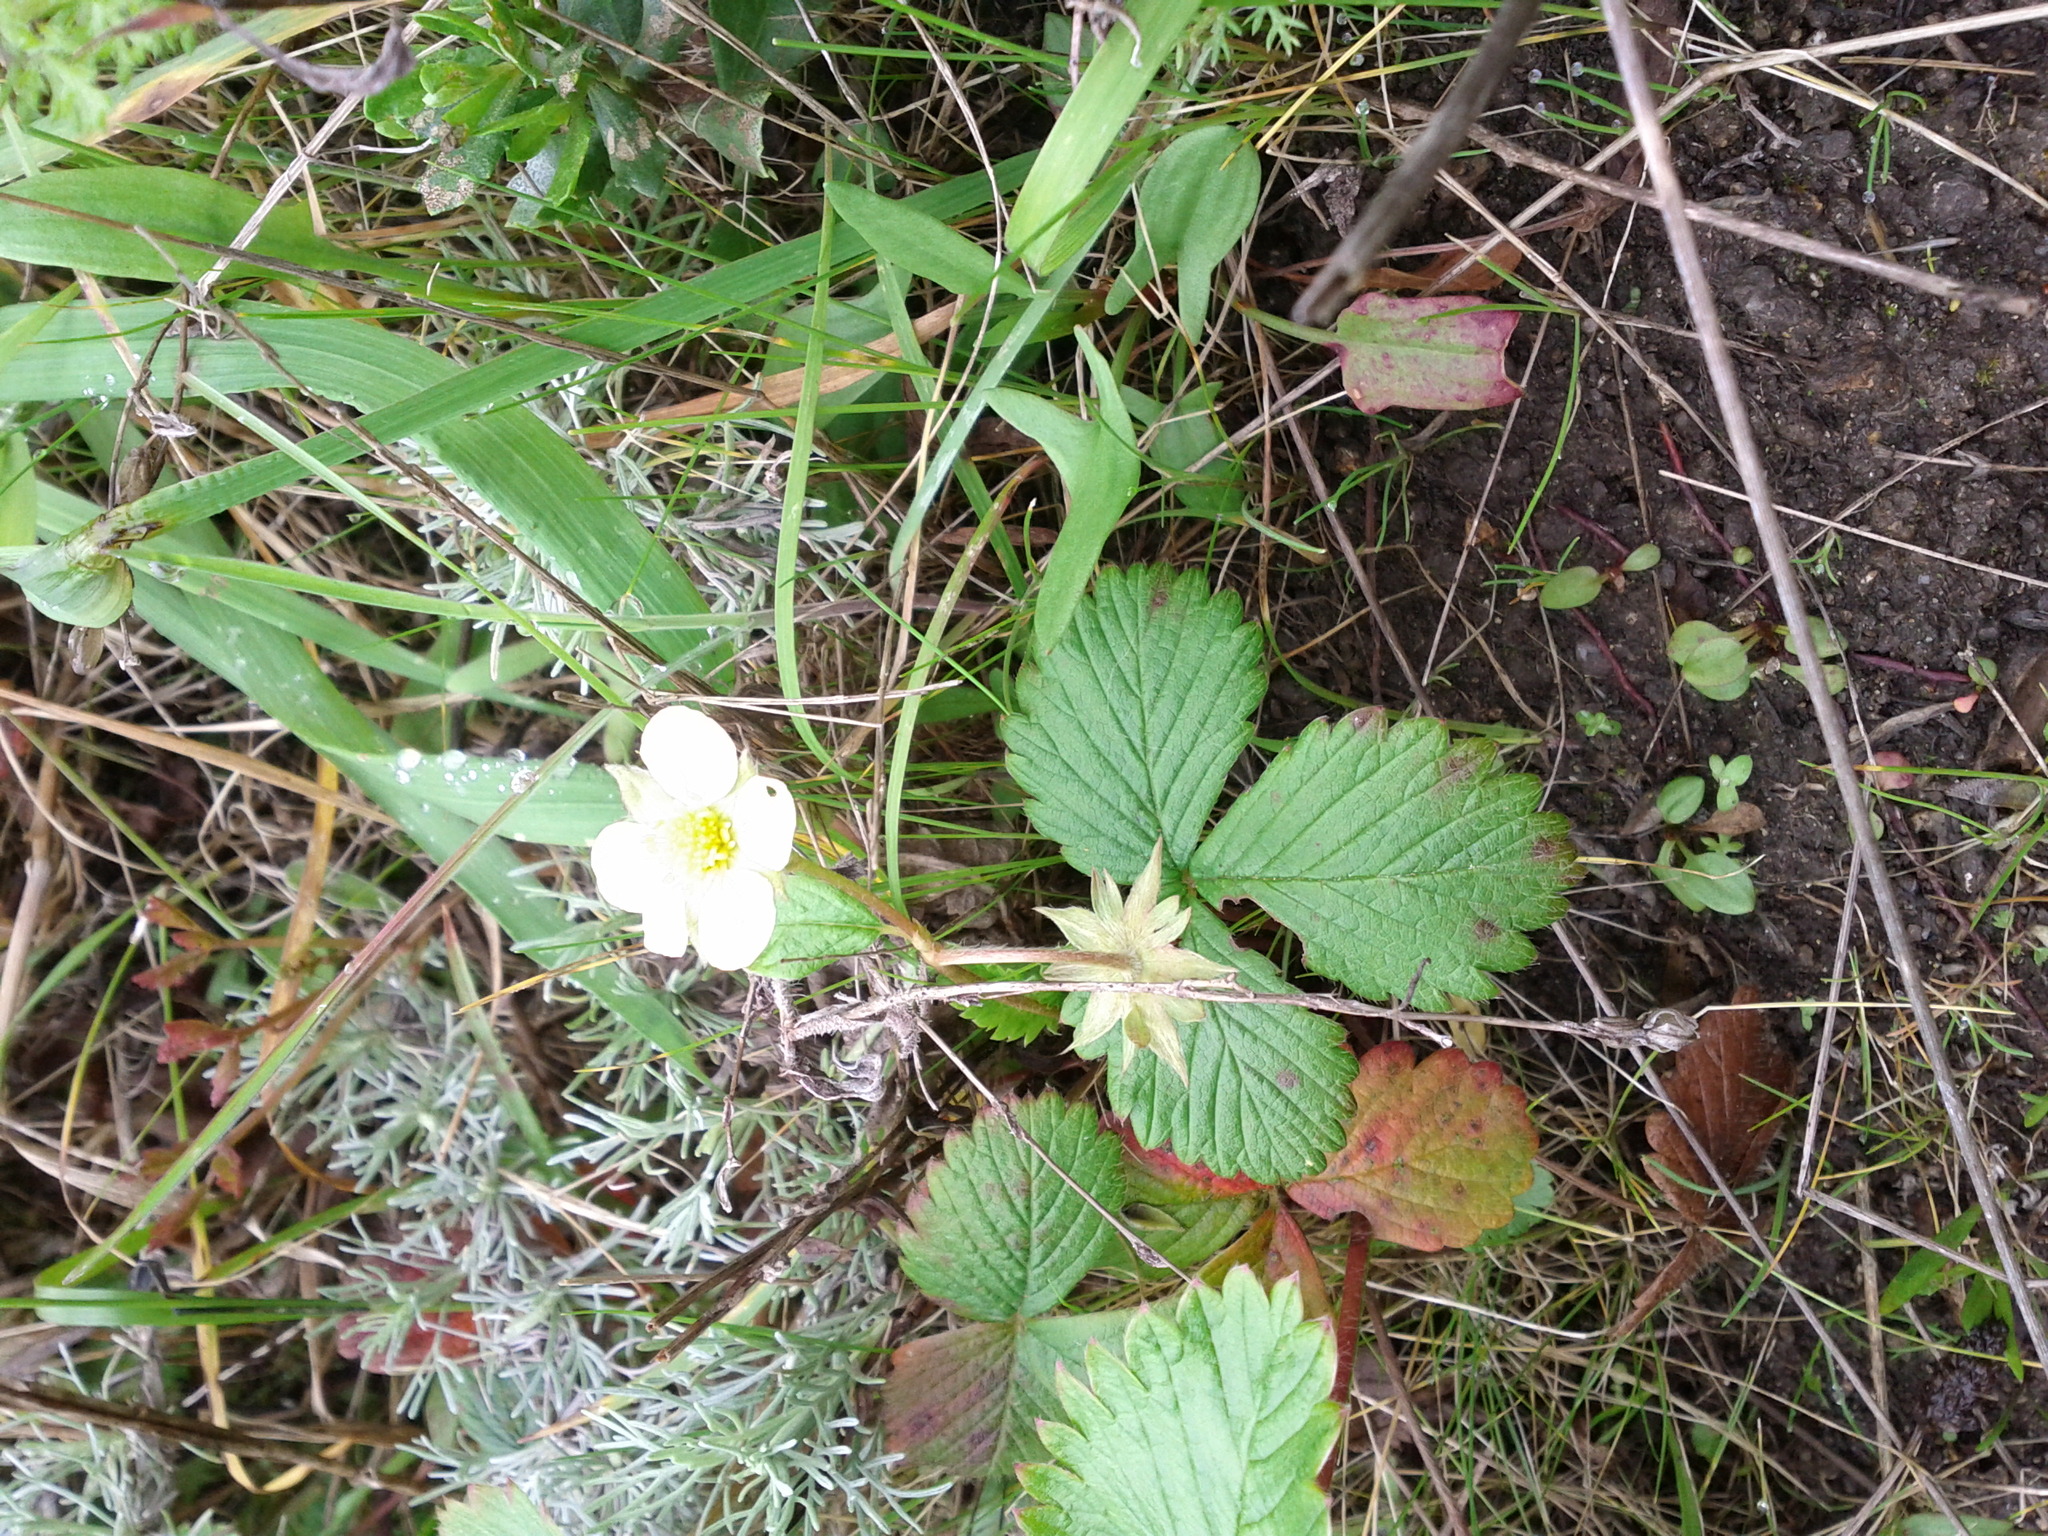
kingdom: Plantae
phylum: Tracheophyta
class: Magnoliopsida
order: Rosales
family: Rosaceae
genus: Fragaria
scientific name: Fragaria vesca
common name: Wild strawberry
